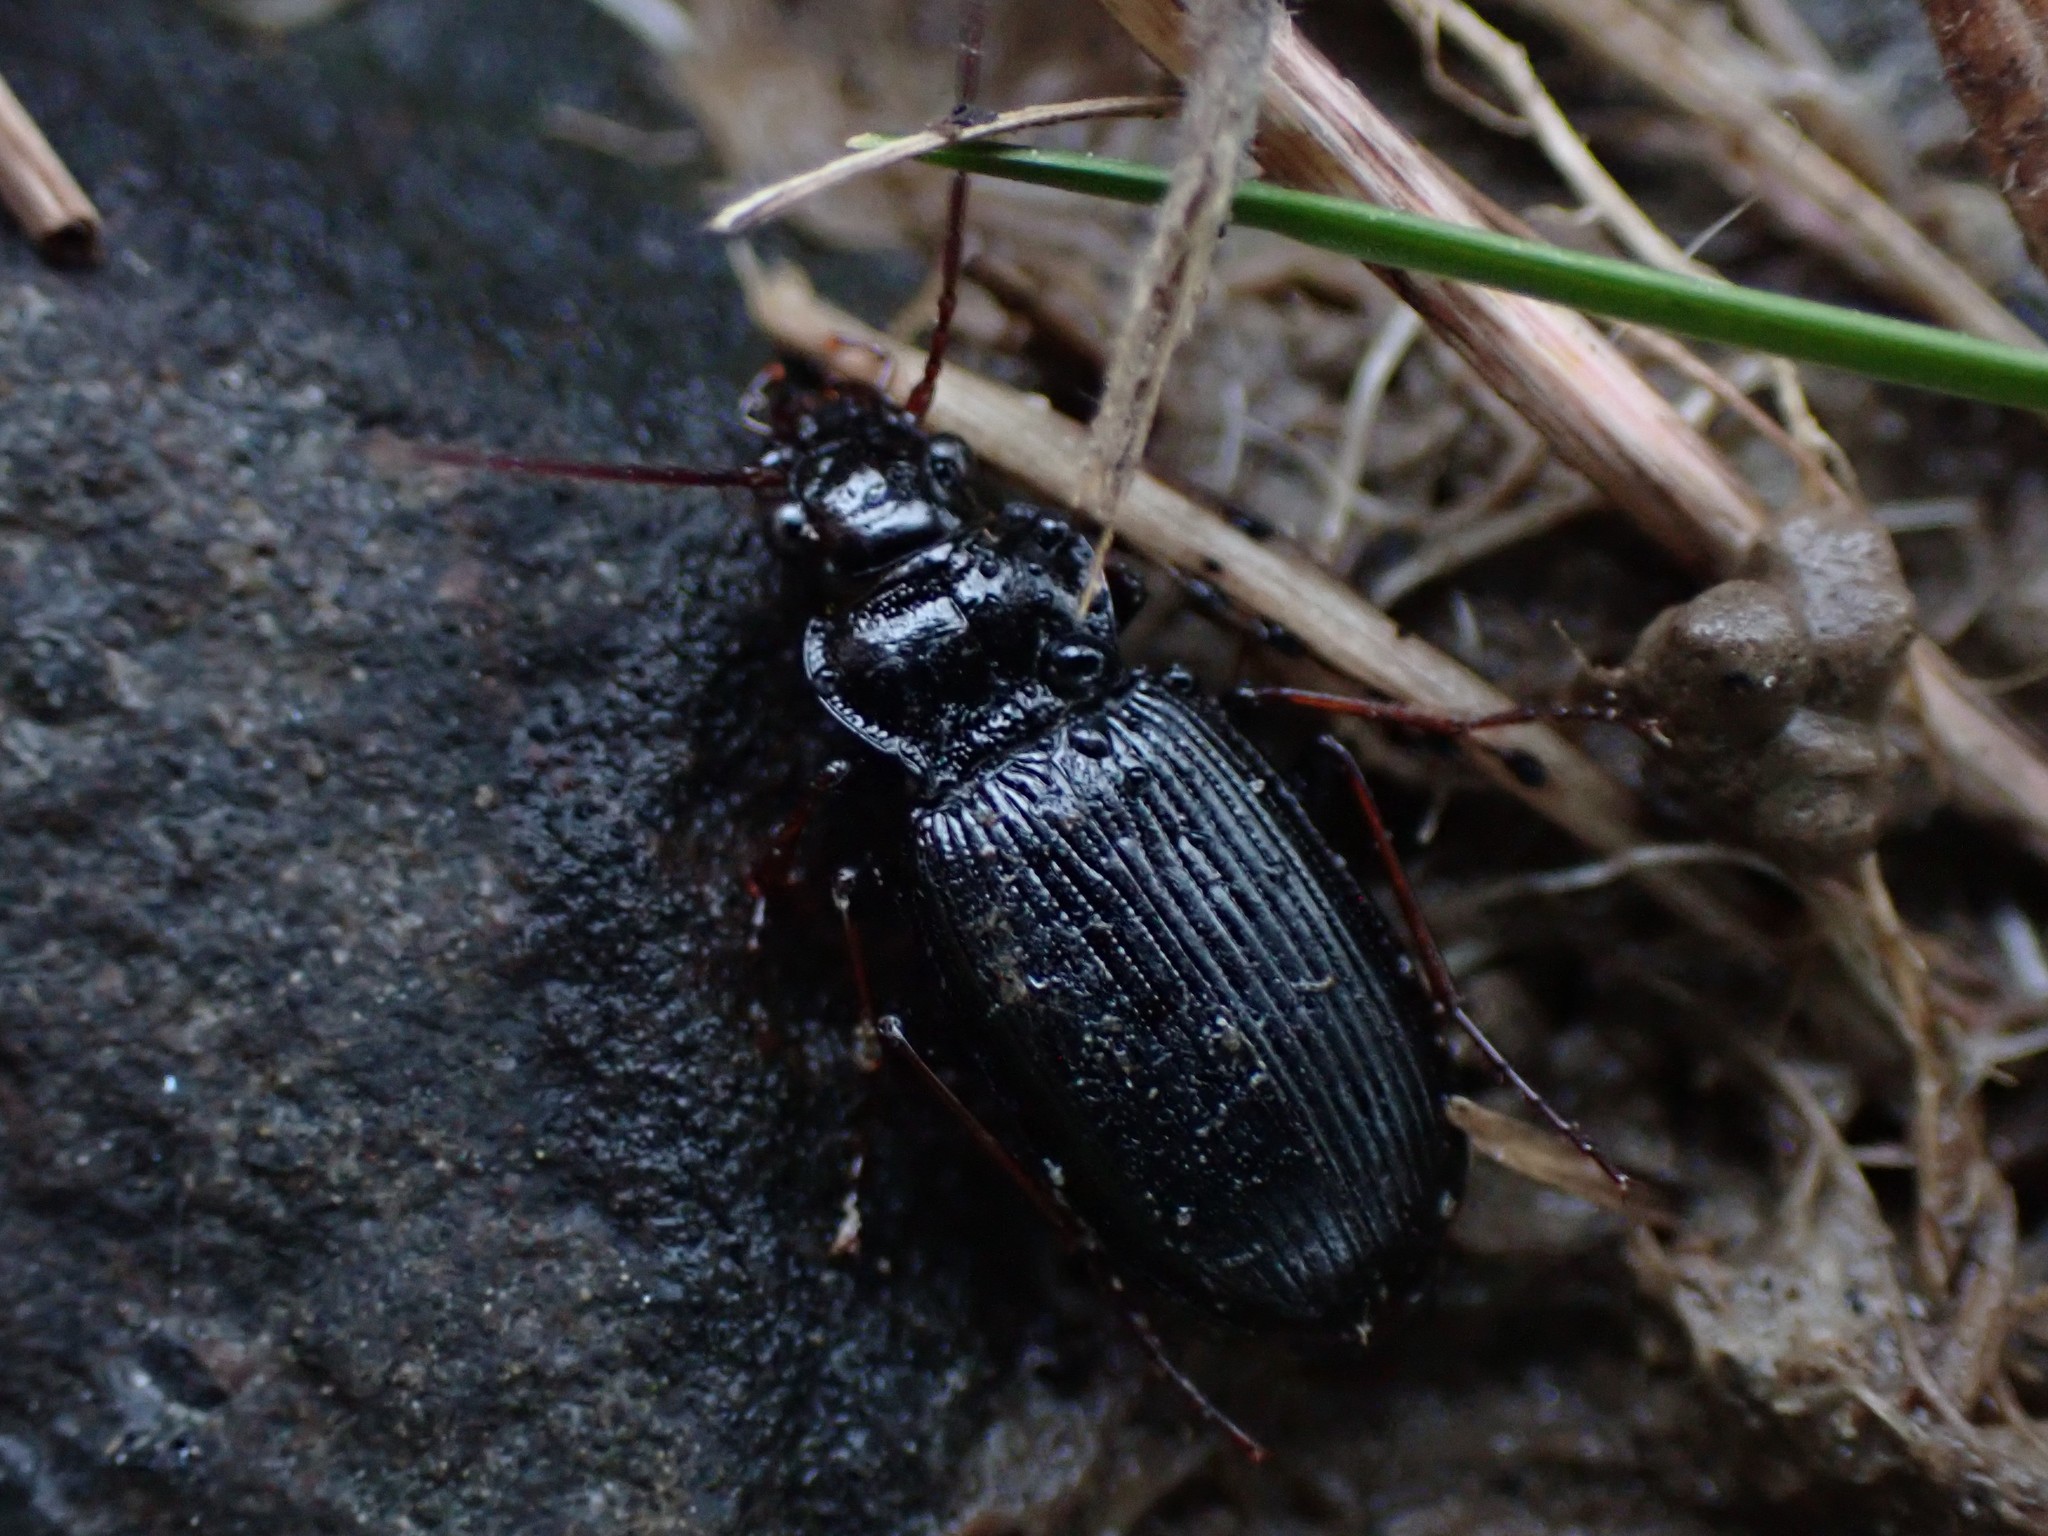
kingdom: Animalia
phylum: Arthropoda
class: Insecta
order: Coleoptera
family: Carabidae
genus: Nebria
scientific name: Nebria brevicollis
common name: Short-necked gazelle beetle
